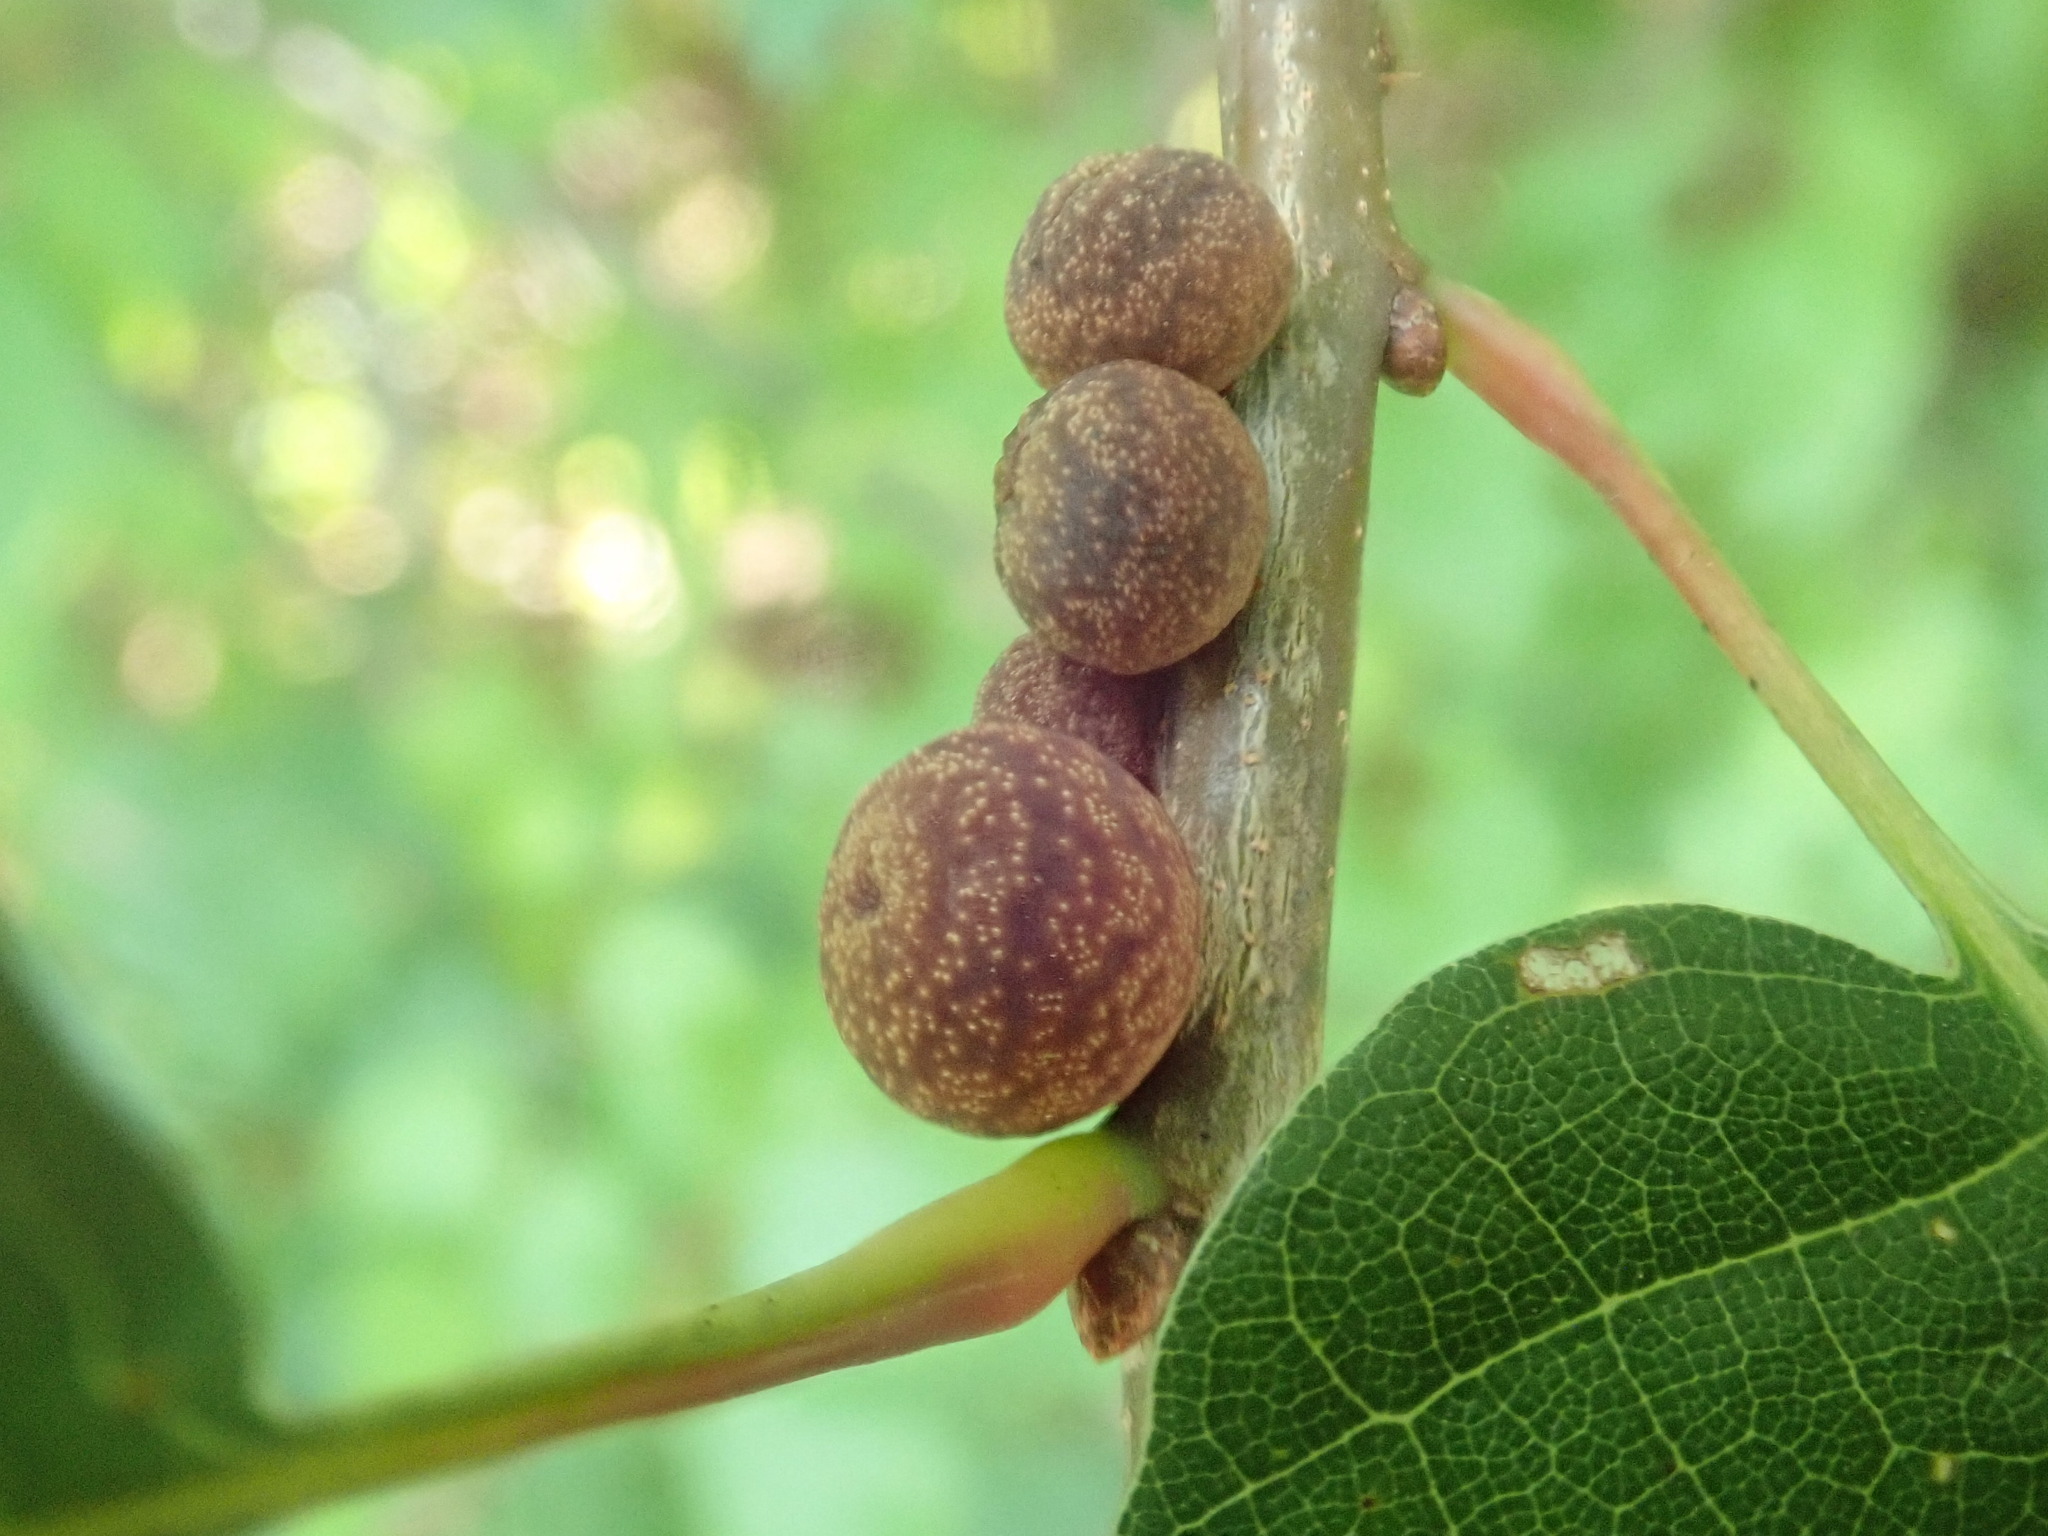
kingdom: Animalia
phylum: Arthropoda
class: Insecta
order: Hymenoptera
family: Cynipidae
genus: Kokkocynips
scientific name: Kokkocynips imbricariae
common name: Banded bullet gall wasp
